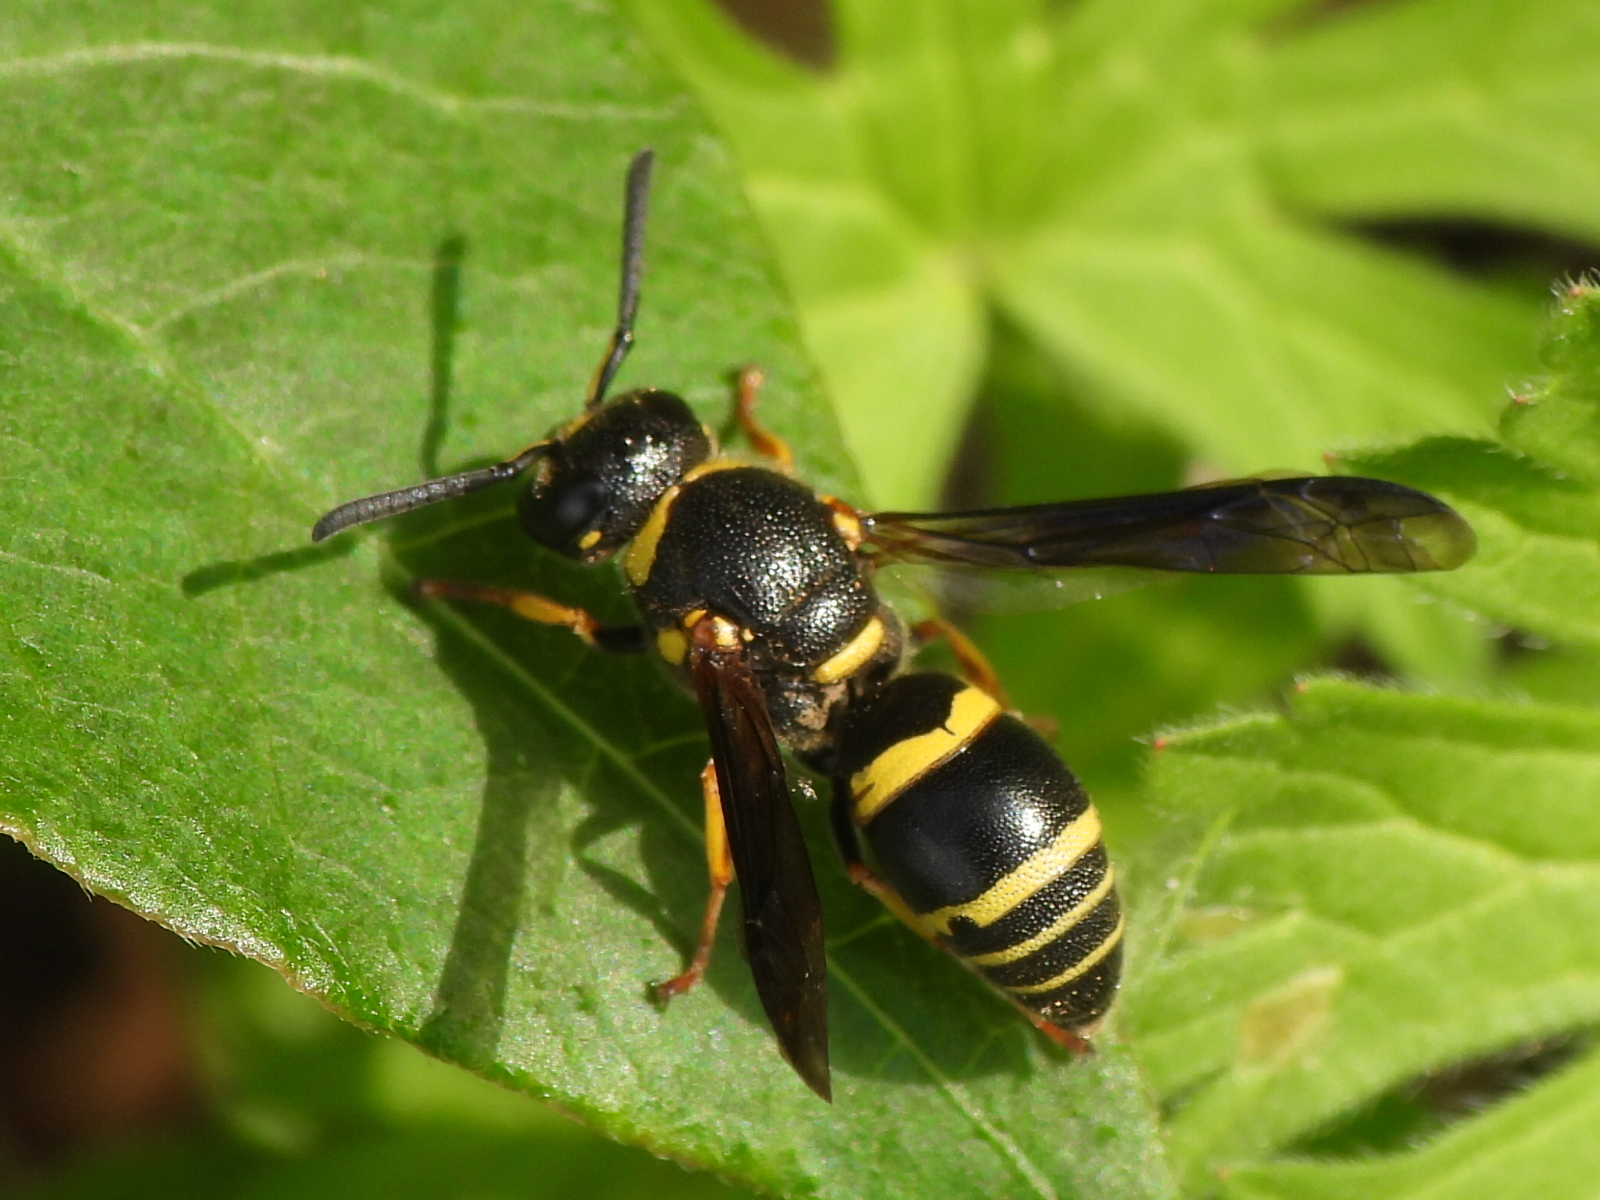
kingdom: Animalia
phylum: Arthropoda
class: Insecta
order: Hymenoptera
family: Eumenidae
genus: Euodynerus
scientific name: Euodynerus foraminatus
